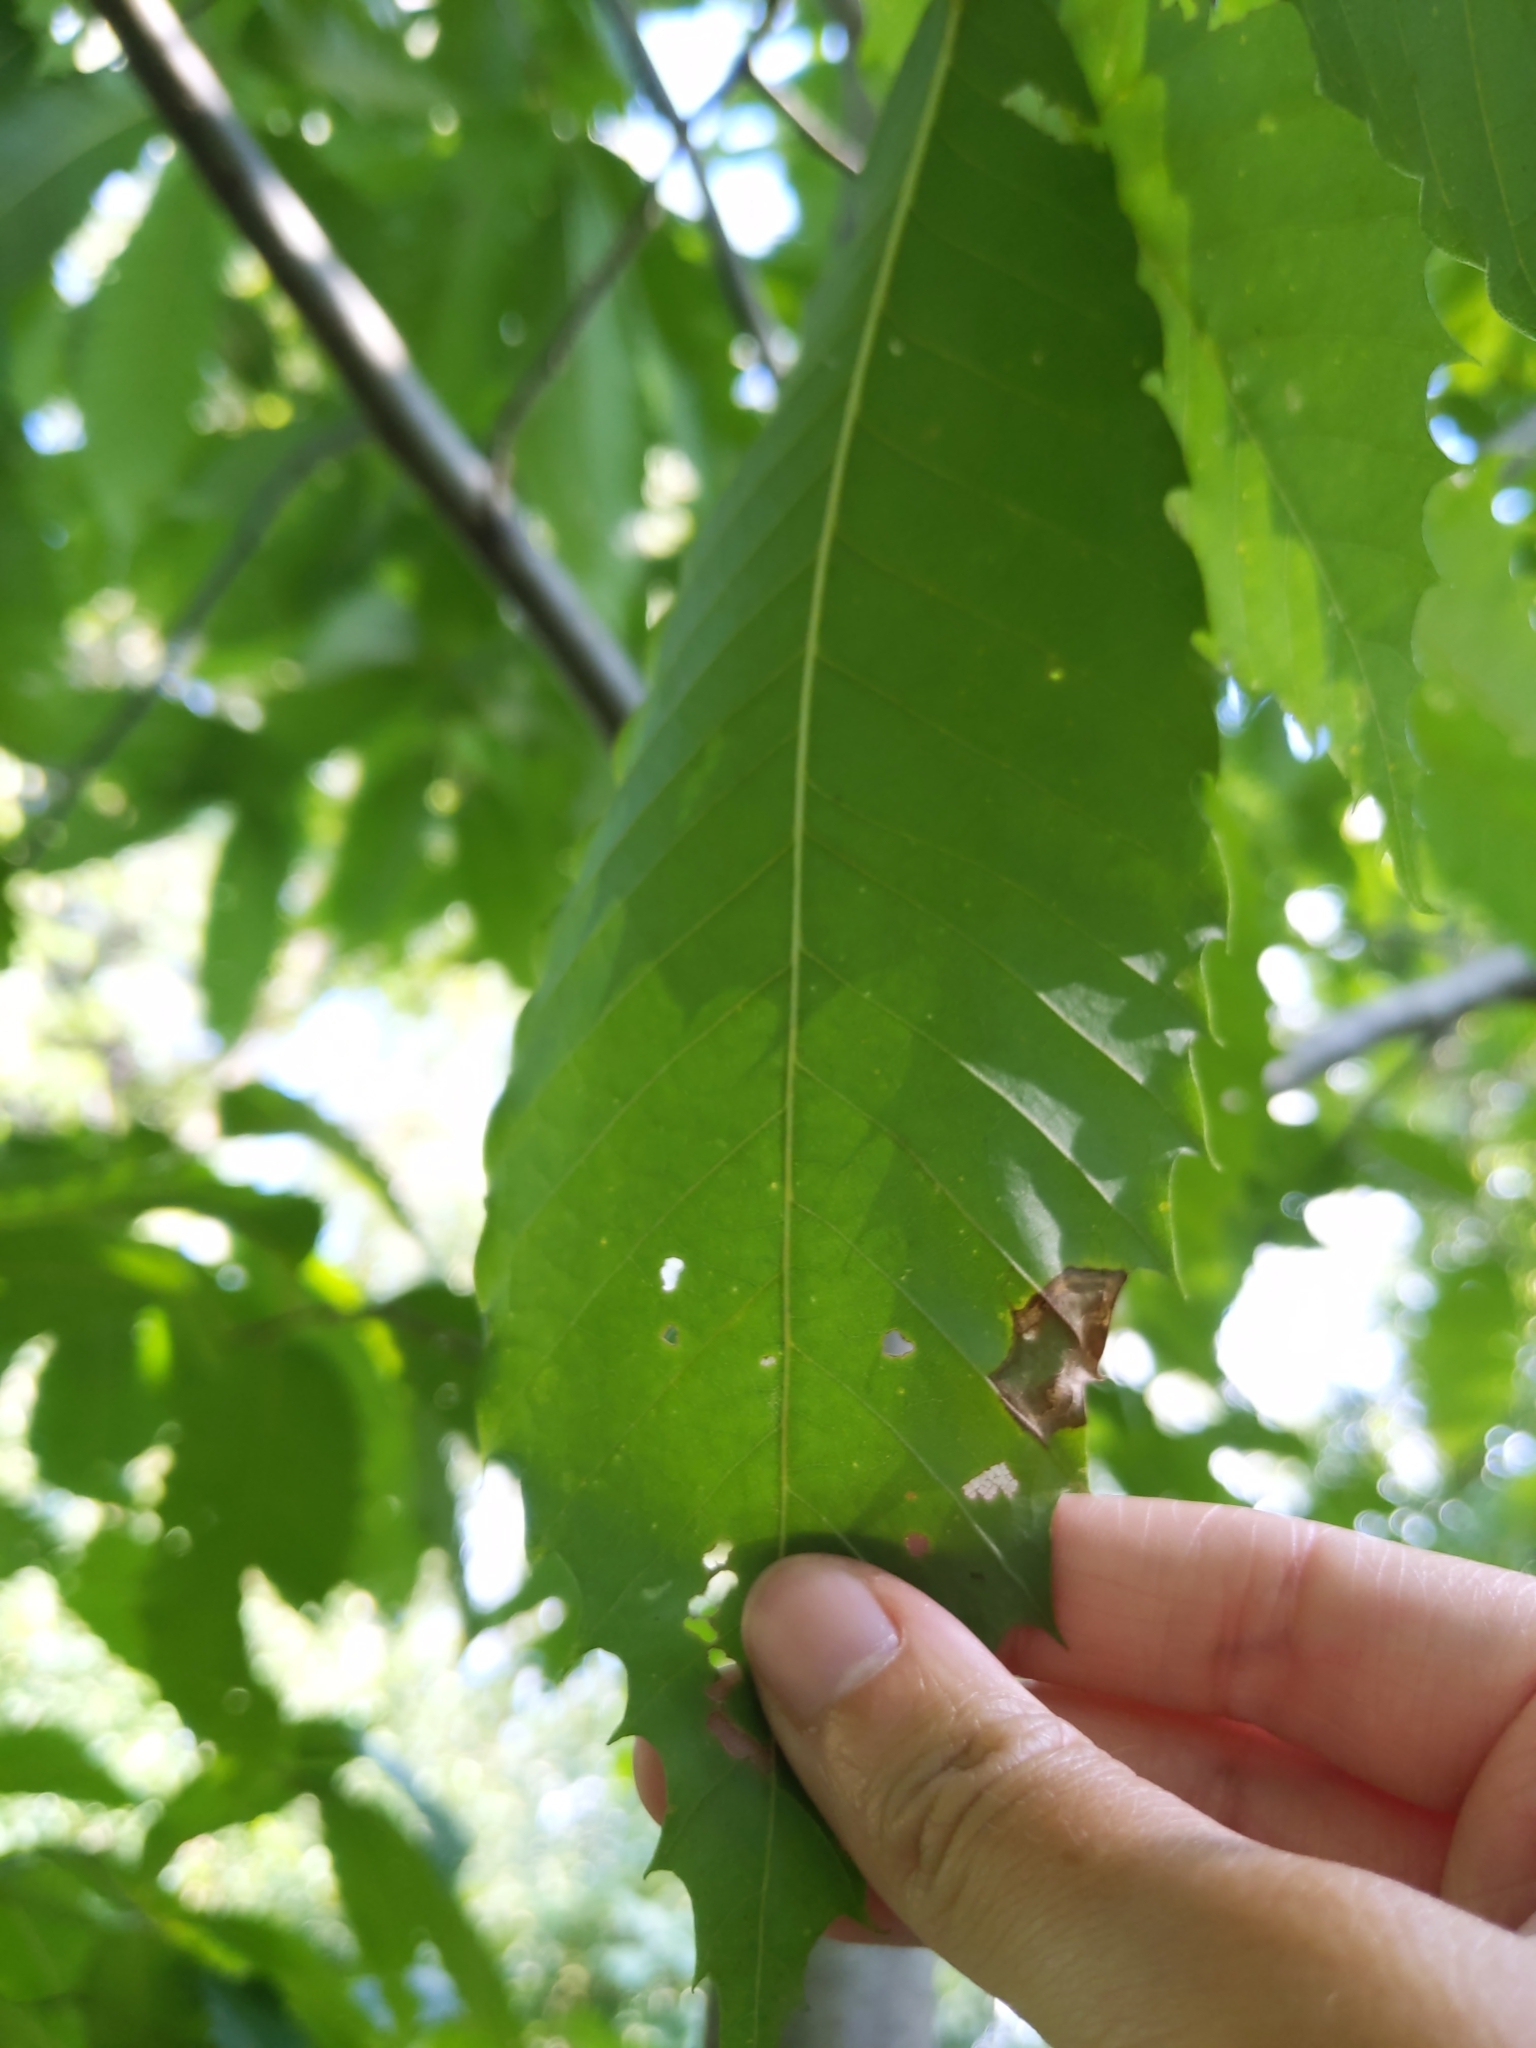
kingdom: Animalia
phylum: Arthropoda
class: Insecta
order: Lepidoptera
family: Nepticulidae
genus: Stigmella
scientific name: Stigmella
